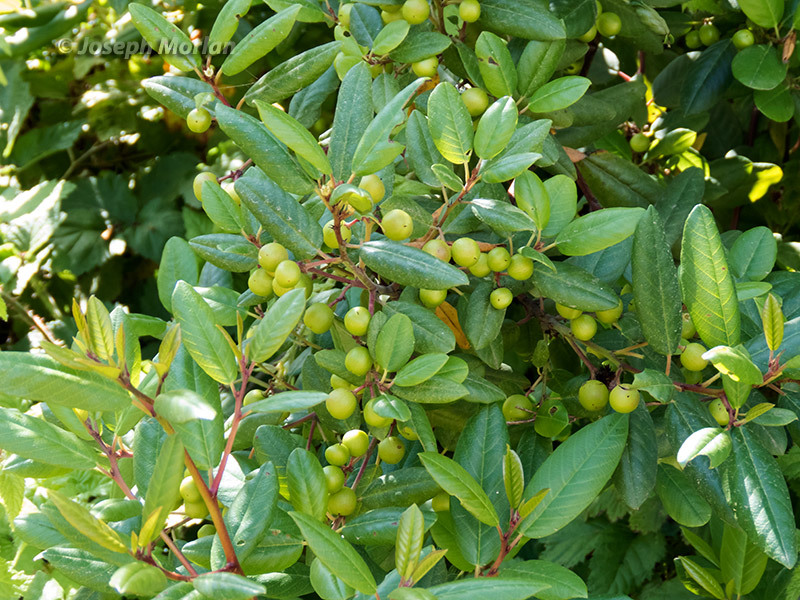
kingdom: Plantae
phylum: Tracheophyta
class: Magnoliopsida
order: Rosales
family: Rhamnaceae
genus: Frangula
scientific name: Frangula californica
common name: California buckthorn
